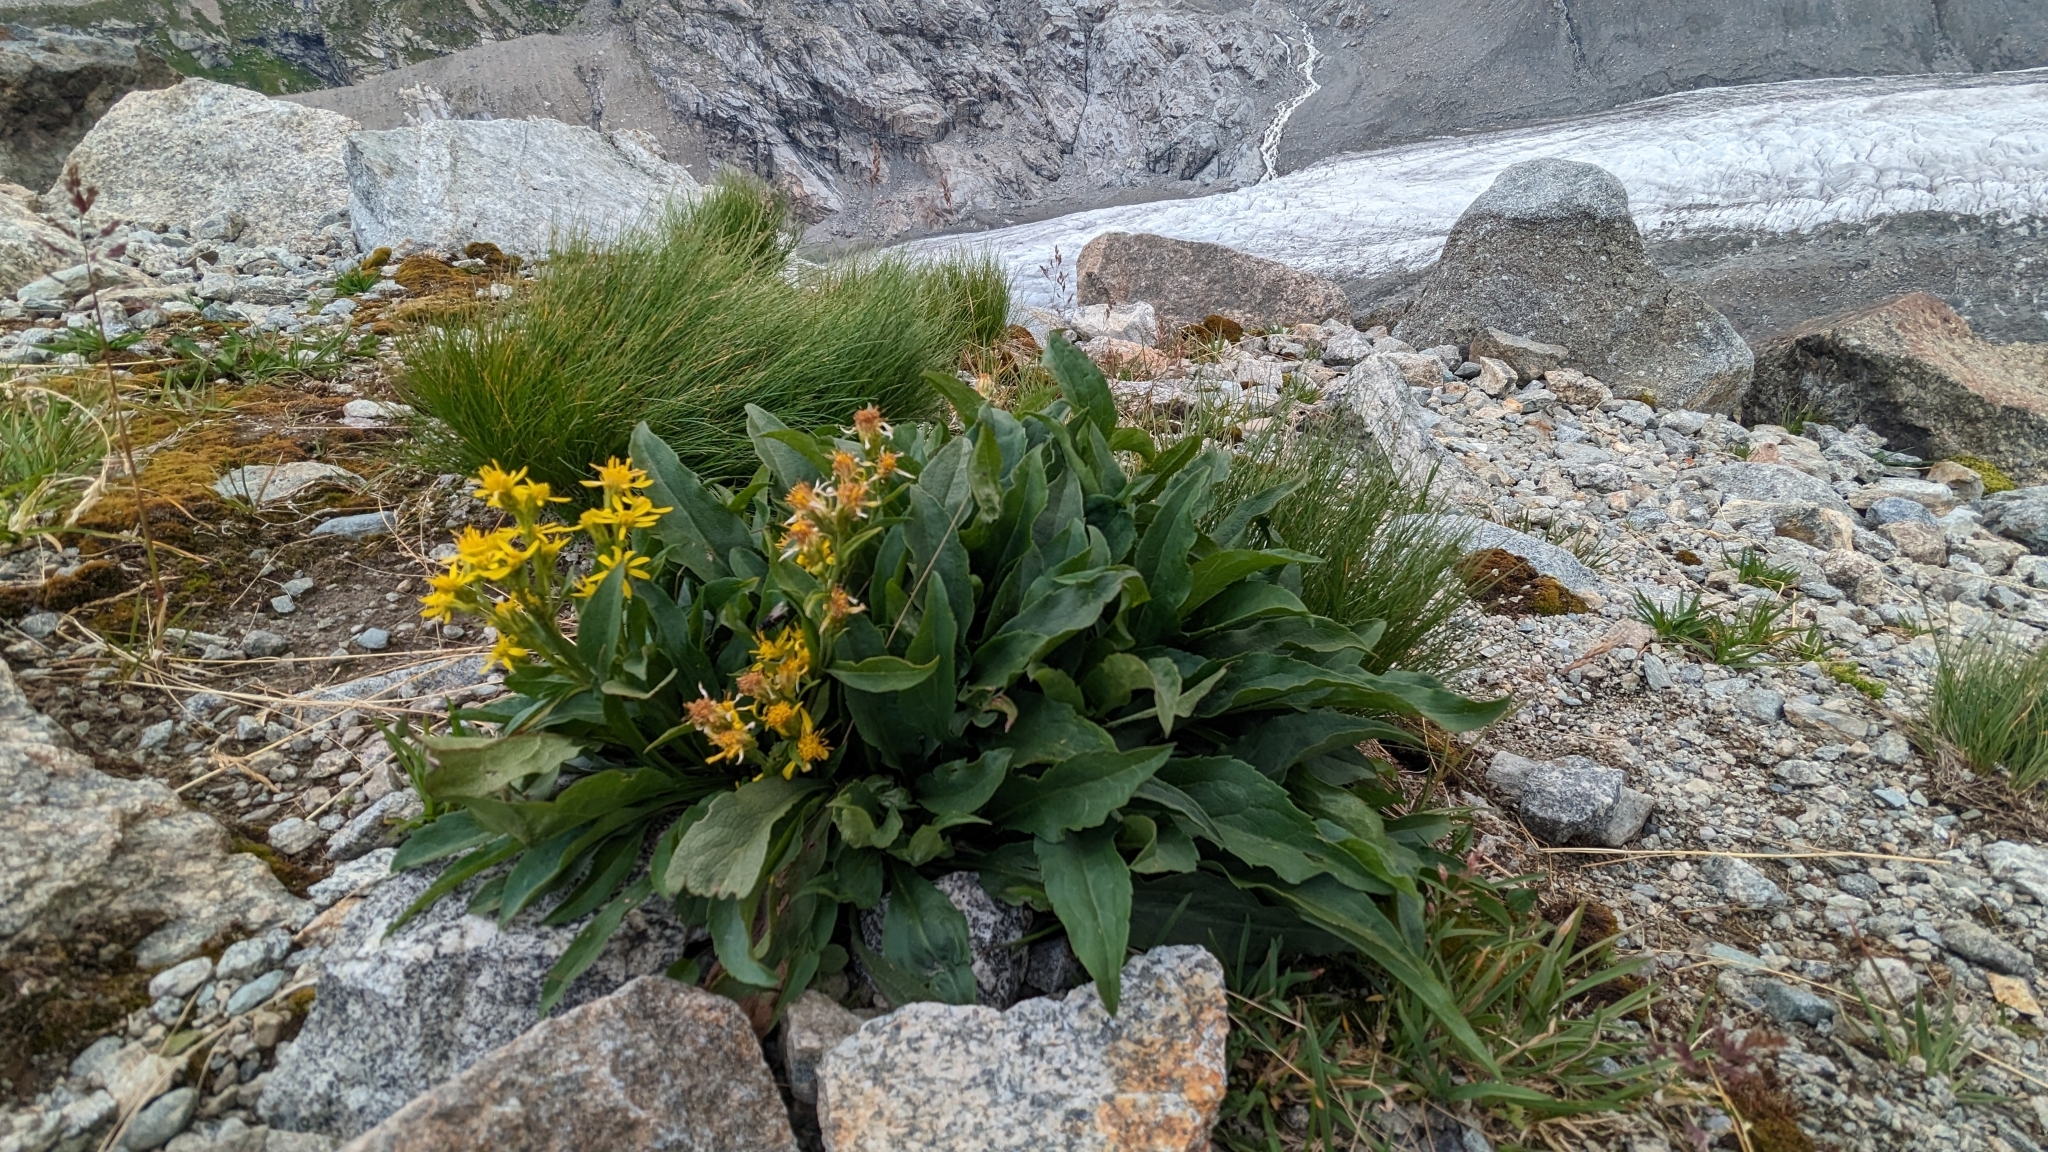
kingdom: Plantae
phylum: Tracheophyta
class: Magnoliopsida
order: Asterales
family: Asteraceae
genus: Solidago
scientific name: Solidago virgaurea
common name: Goldenrod
